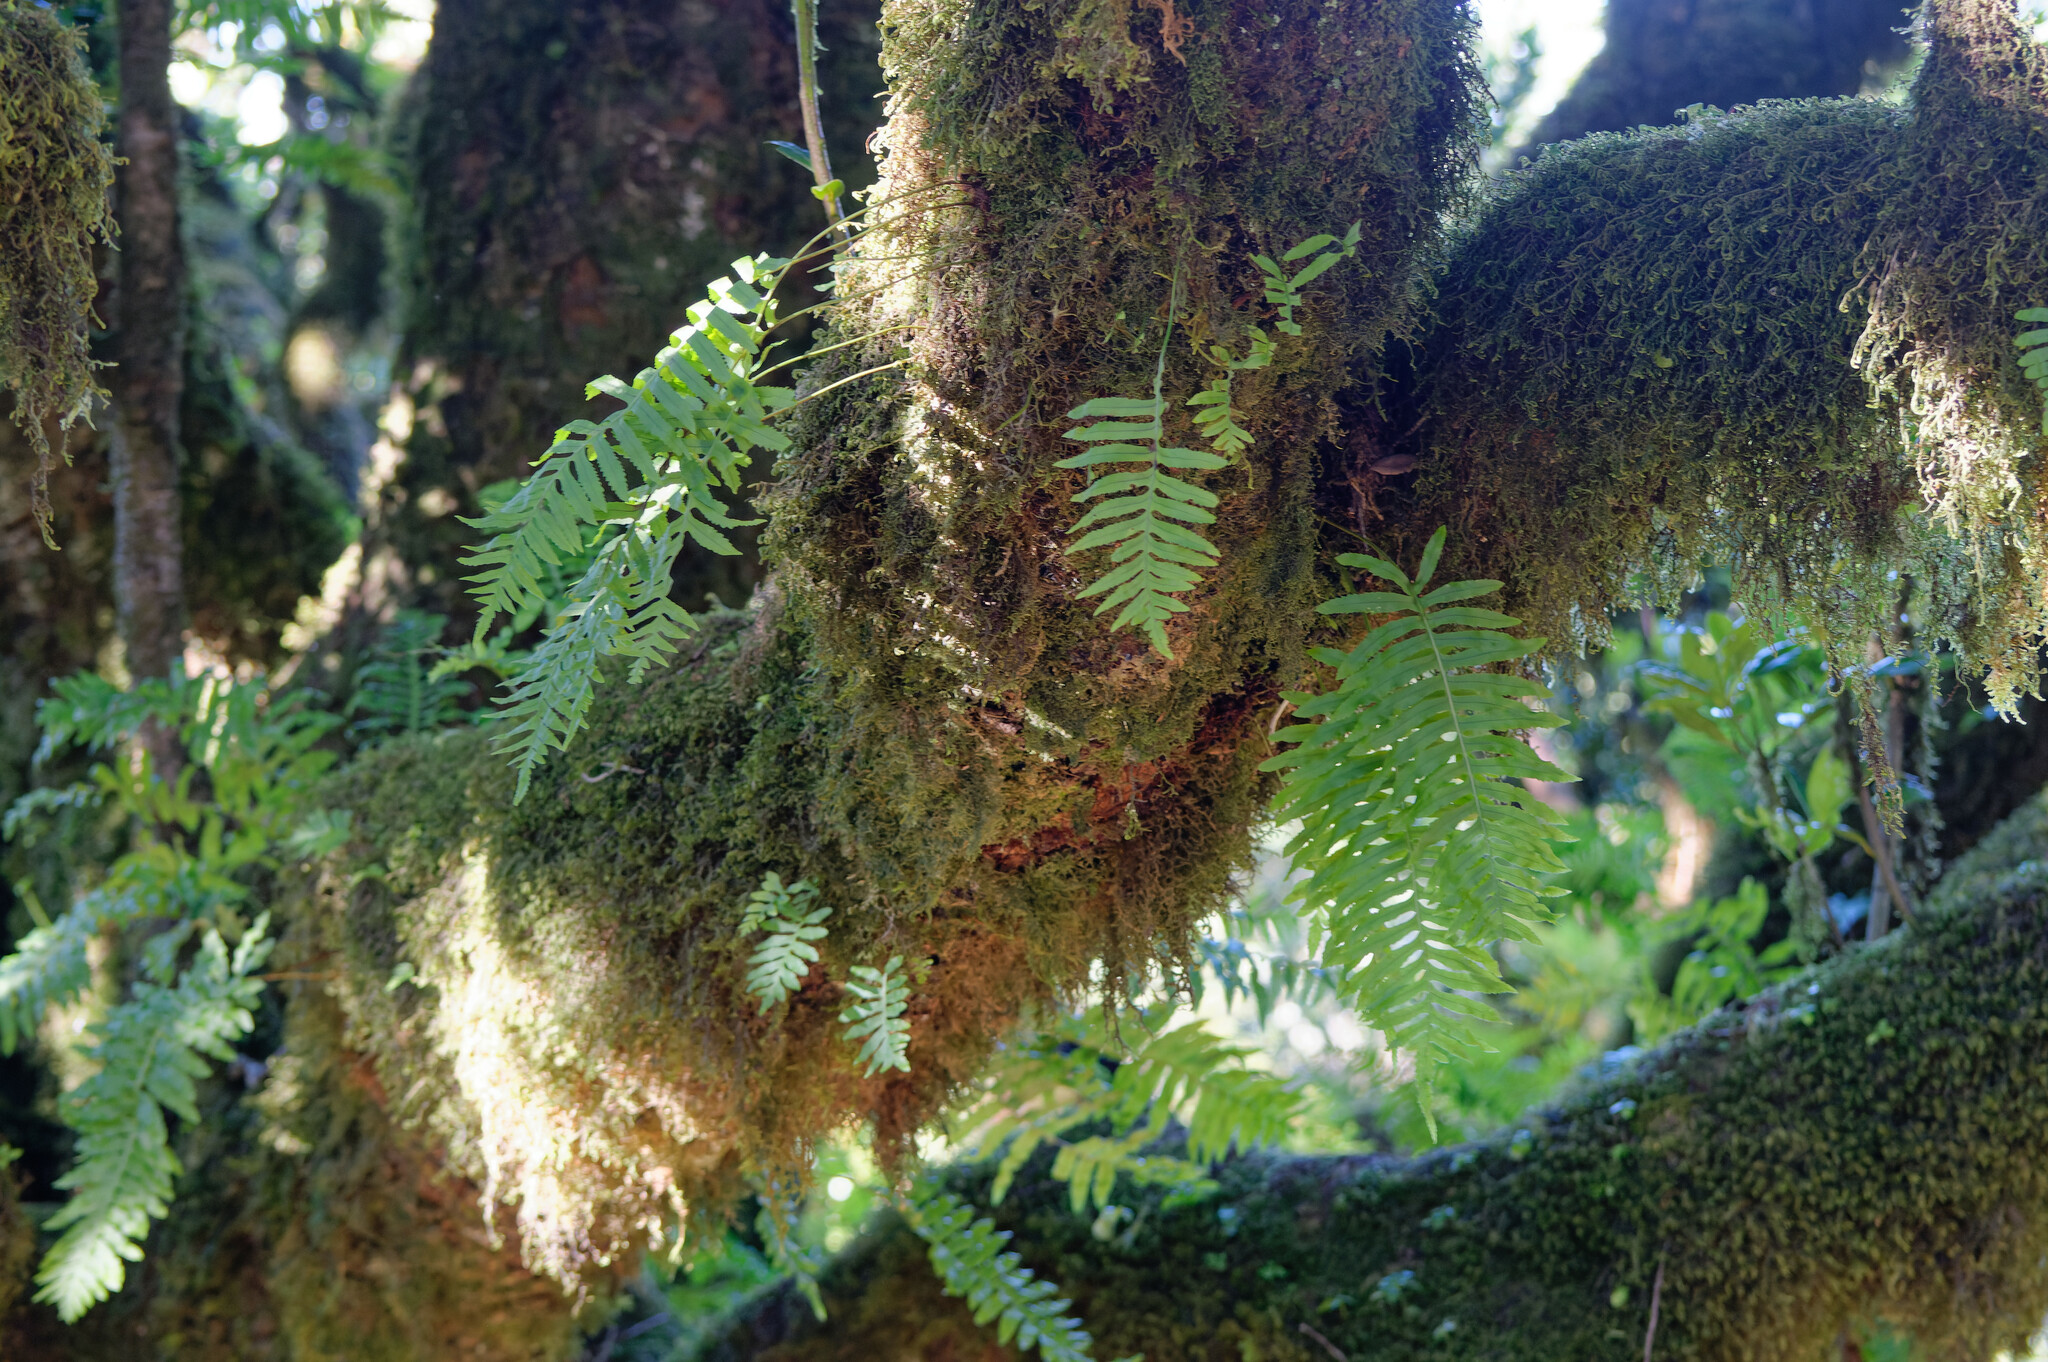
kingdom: Plantae
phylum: Tracheophyta
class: Polypodiopsida
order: Polypodiales
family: Polypodiaceae
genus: Polypodium
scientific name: Polypodium macaronesicum
